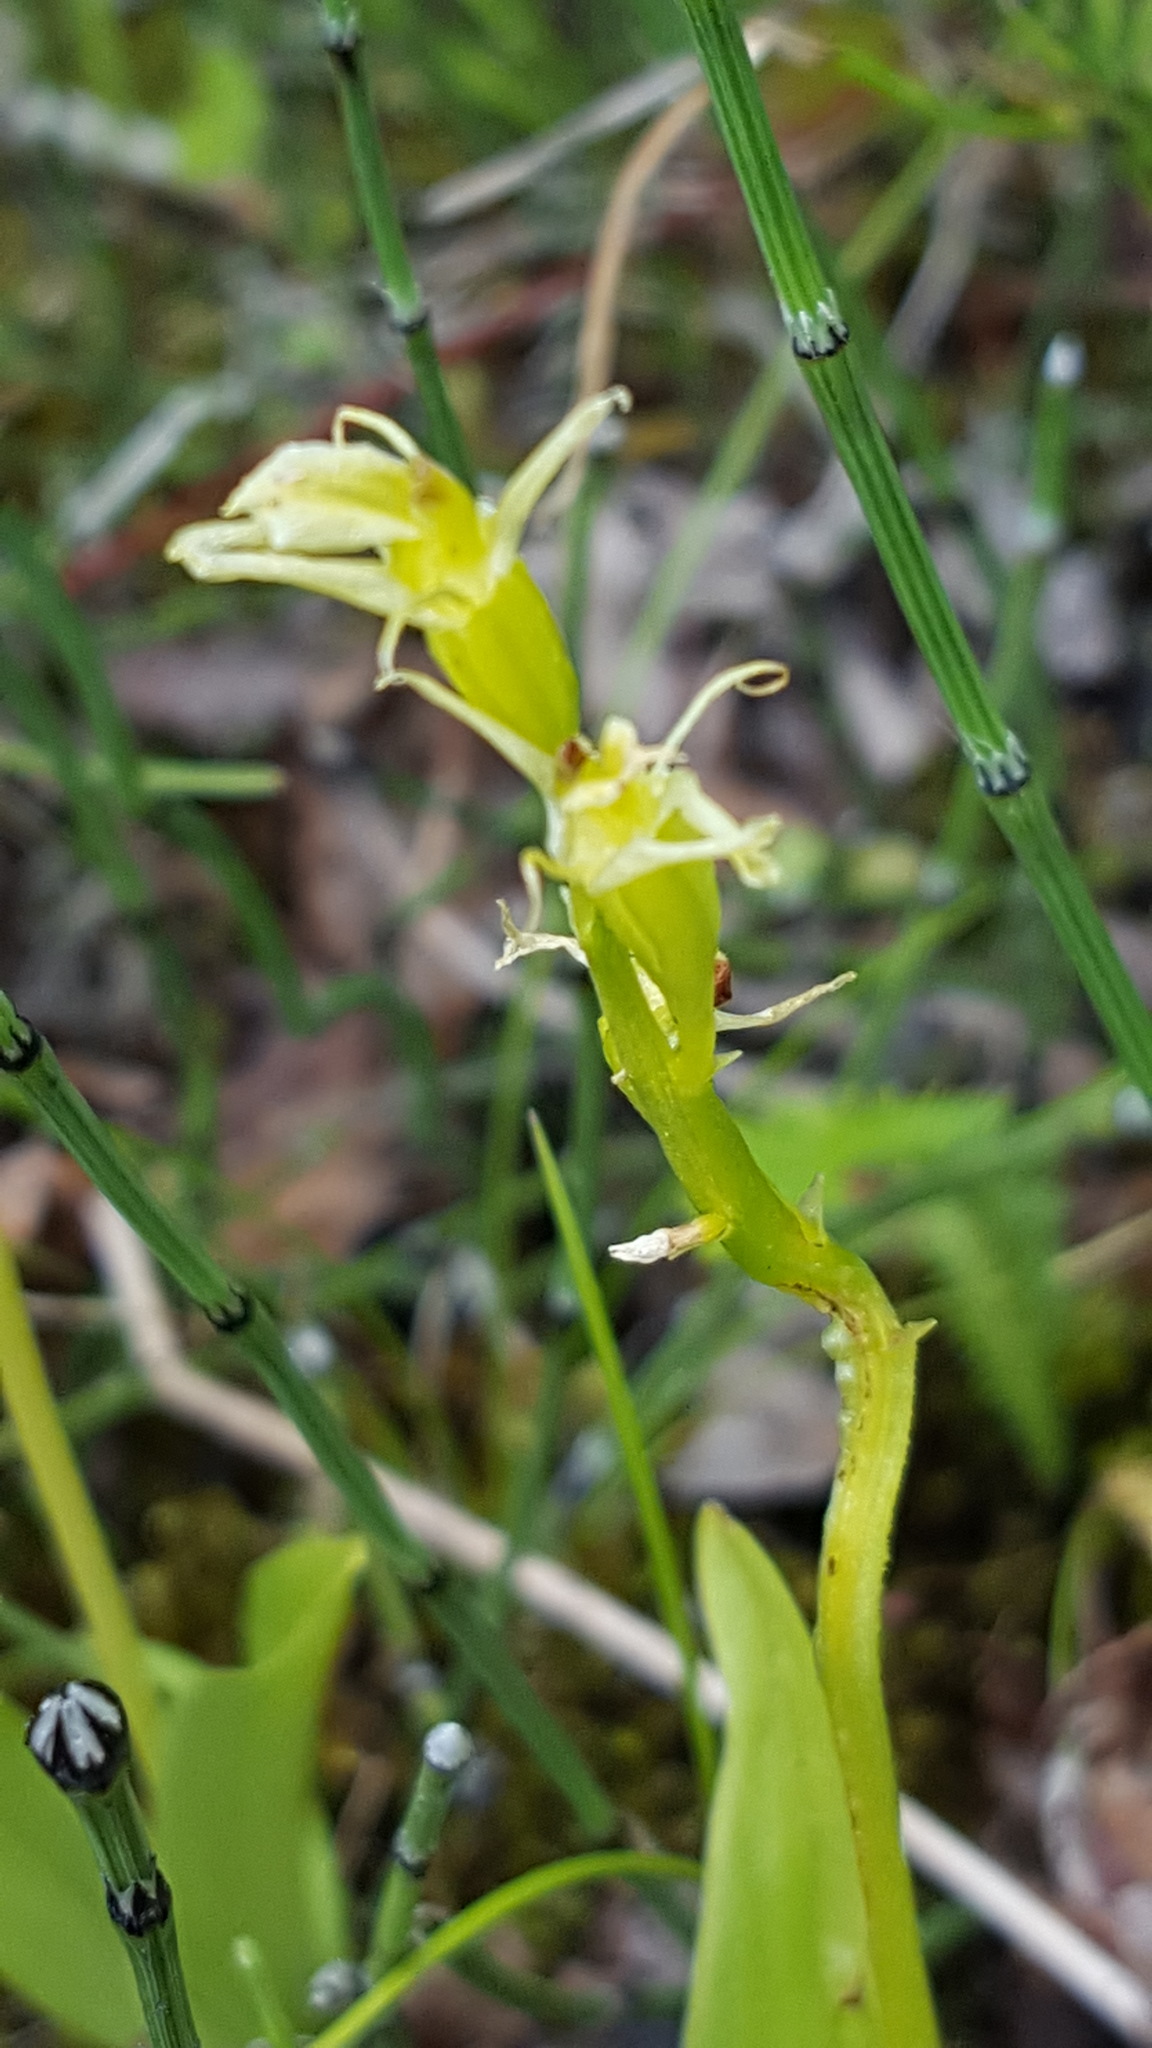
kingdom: Animalia
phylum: Arthropoda
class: Insecta
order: Coleoptera
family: Curculionidae
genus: Liparis
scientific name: Liparis loeselii
